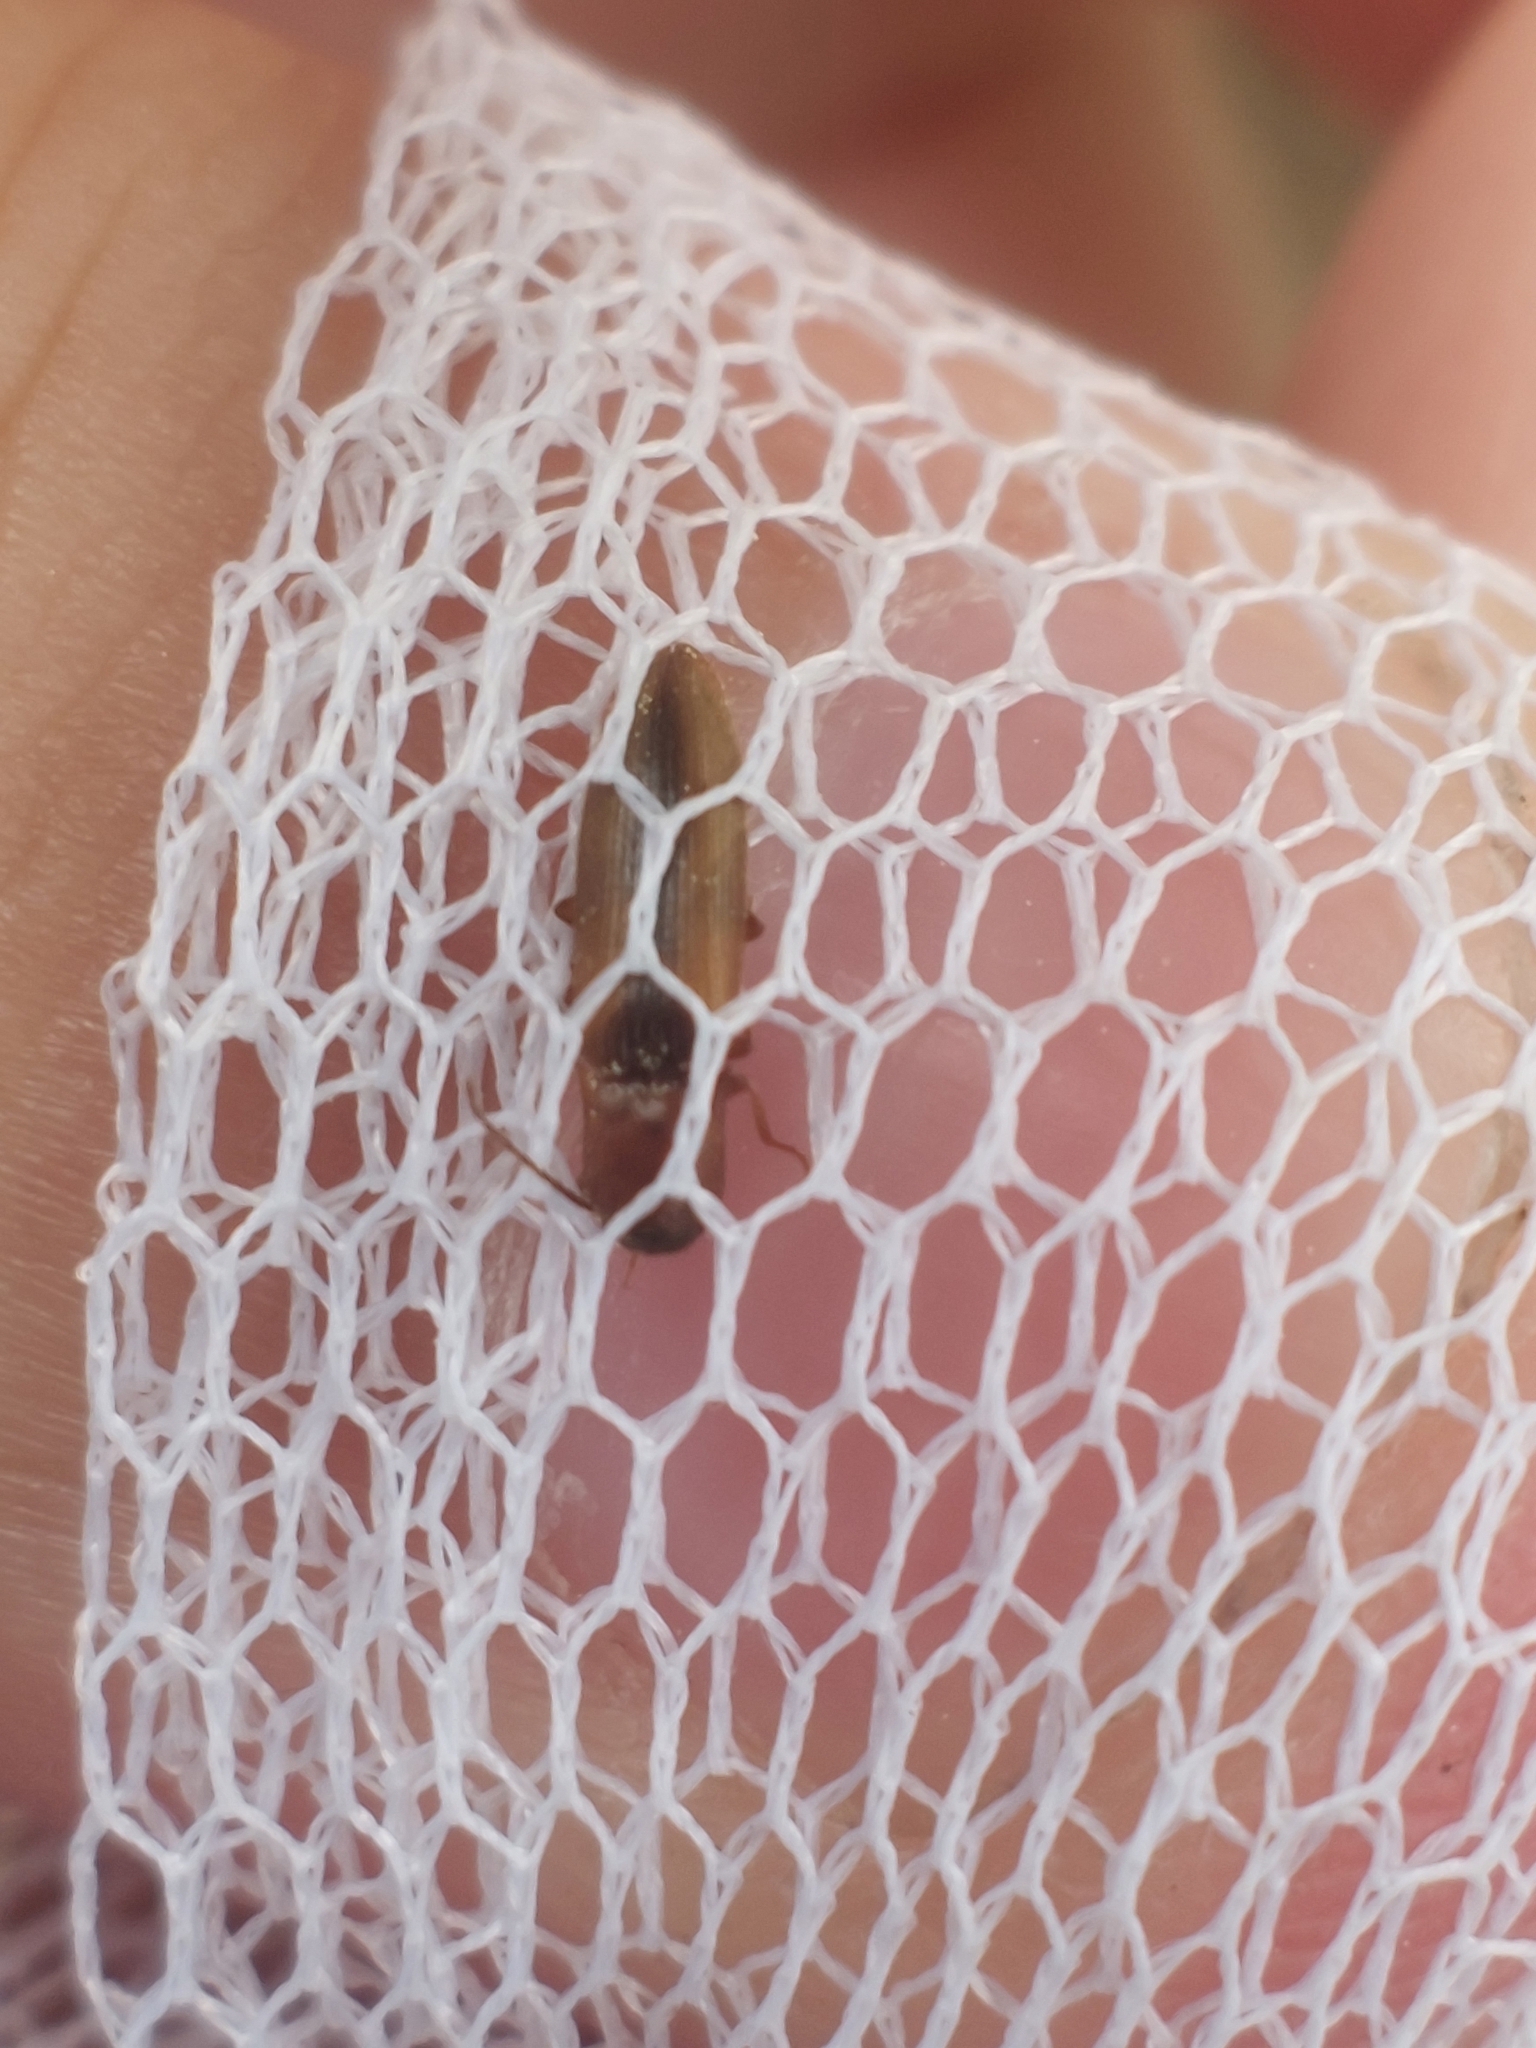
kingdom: Animalia
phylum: Arthropoda
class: Insecta
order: Coleoptera
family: Elateridae
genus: Dalopius
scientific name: Dalopius marginatus
